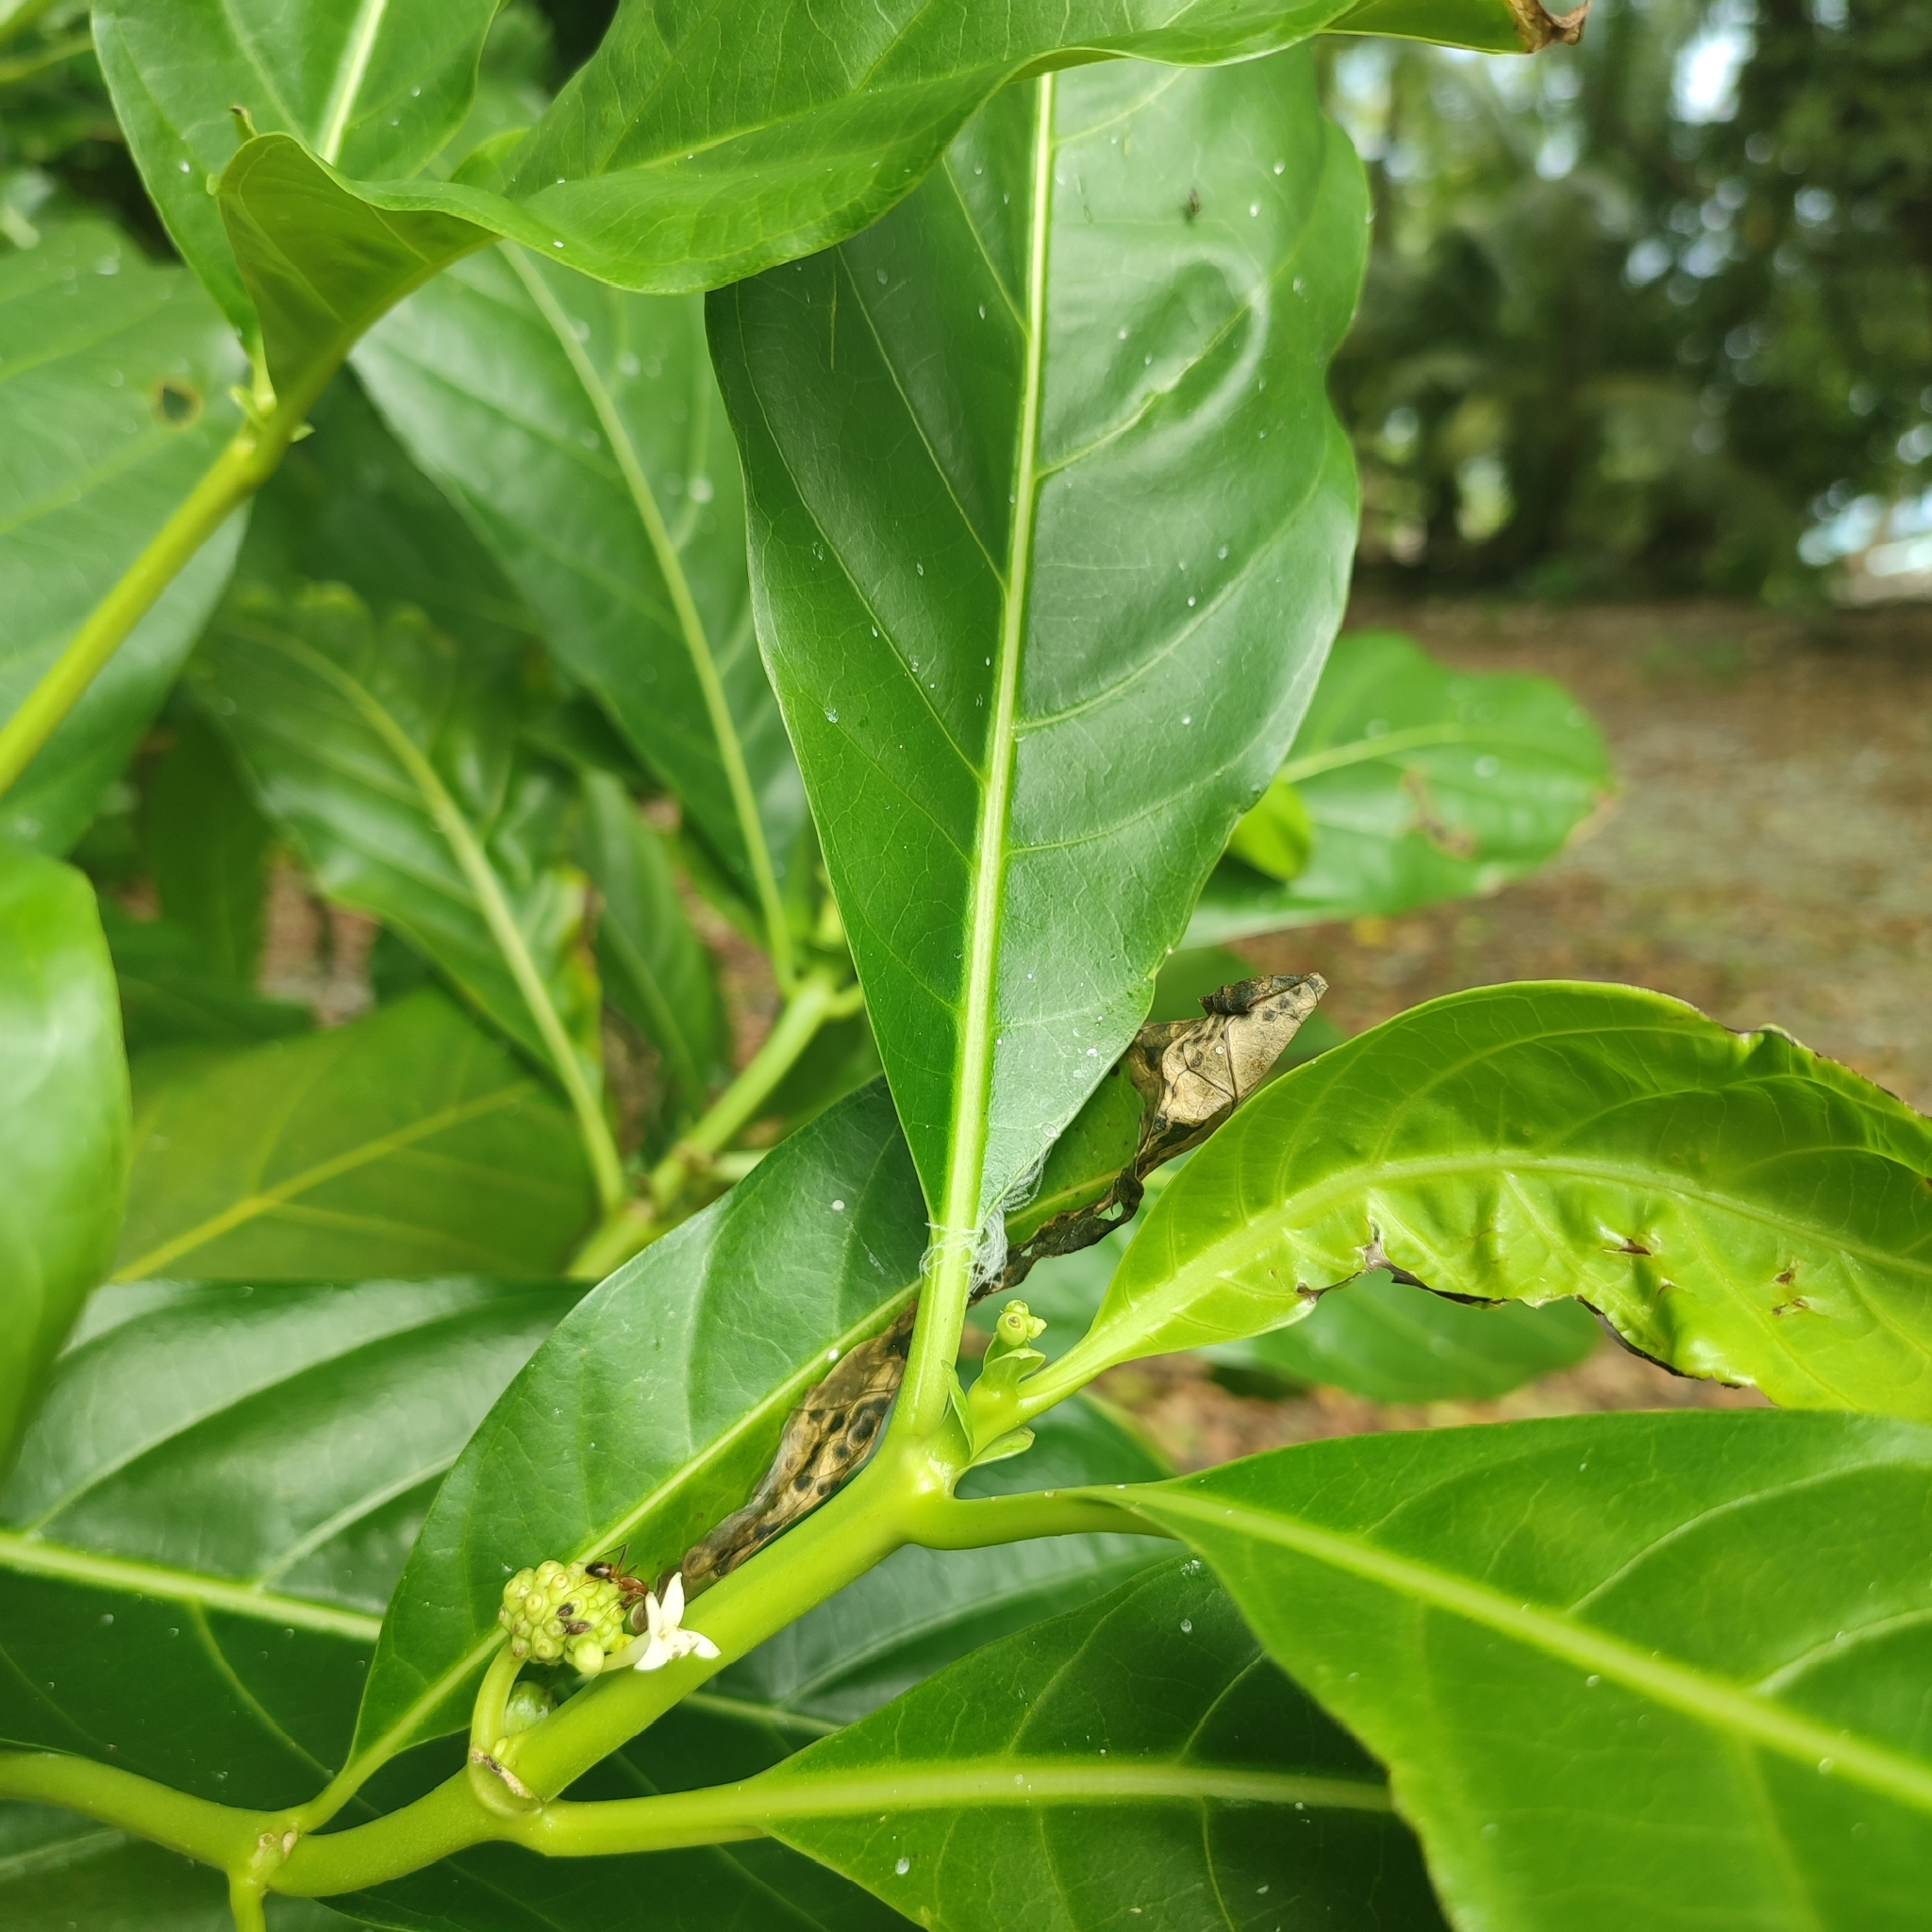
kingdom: Plantae
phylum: Tracheophyta
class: Magnoliopsida
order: Gentianales
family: Rubiaceae
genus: Morinda
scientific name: Morinda citrifolia
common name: Indian-mulberry
